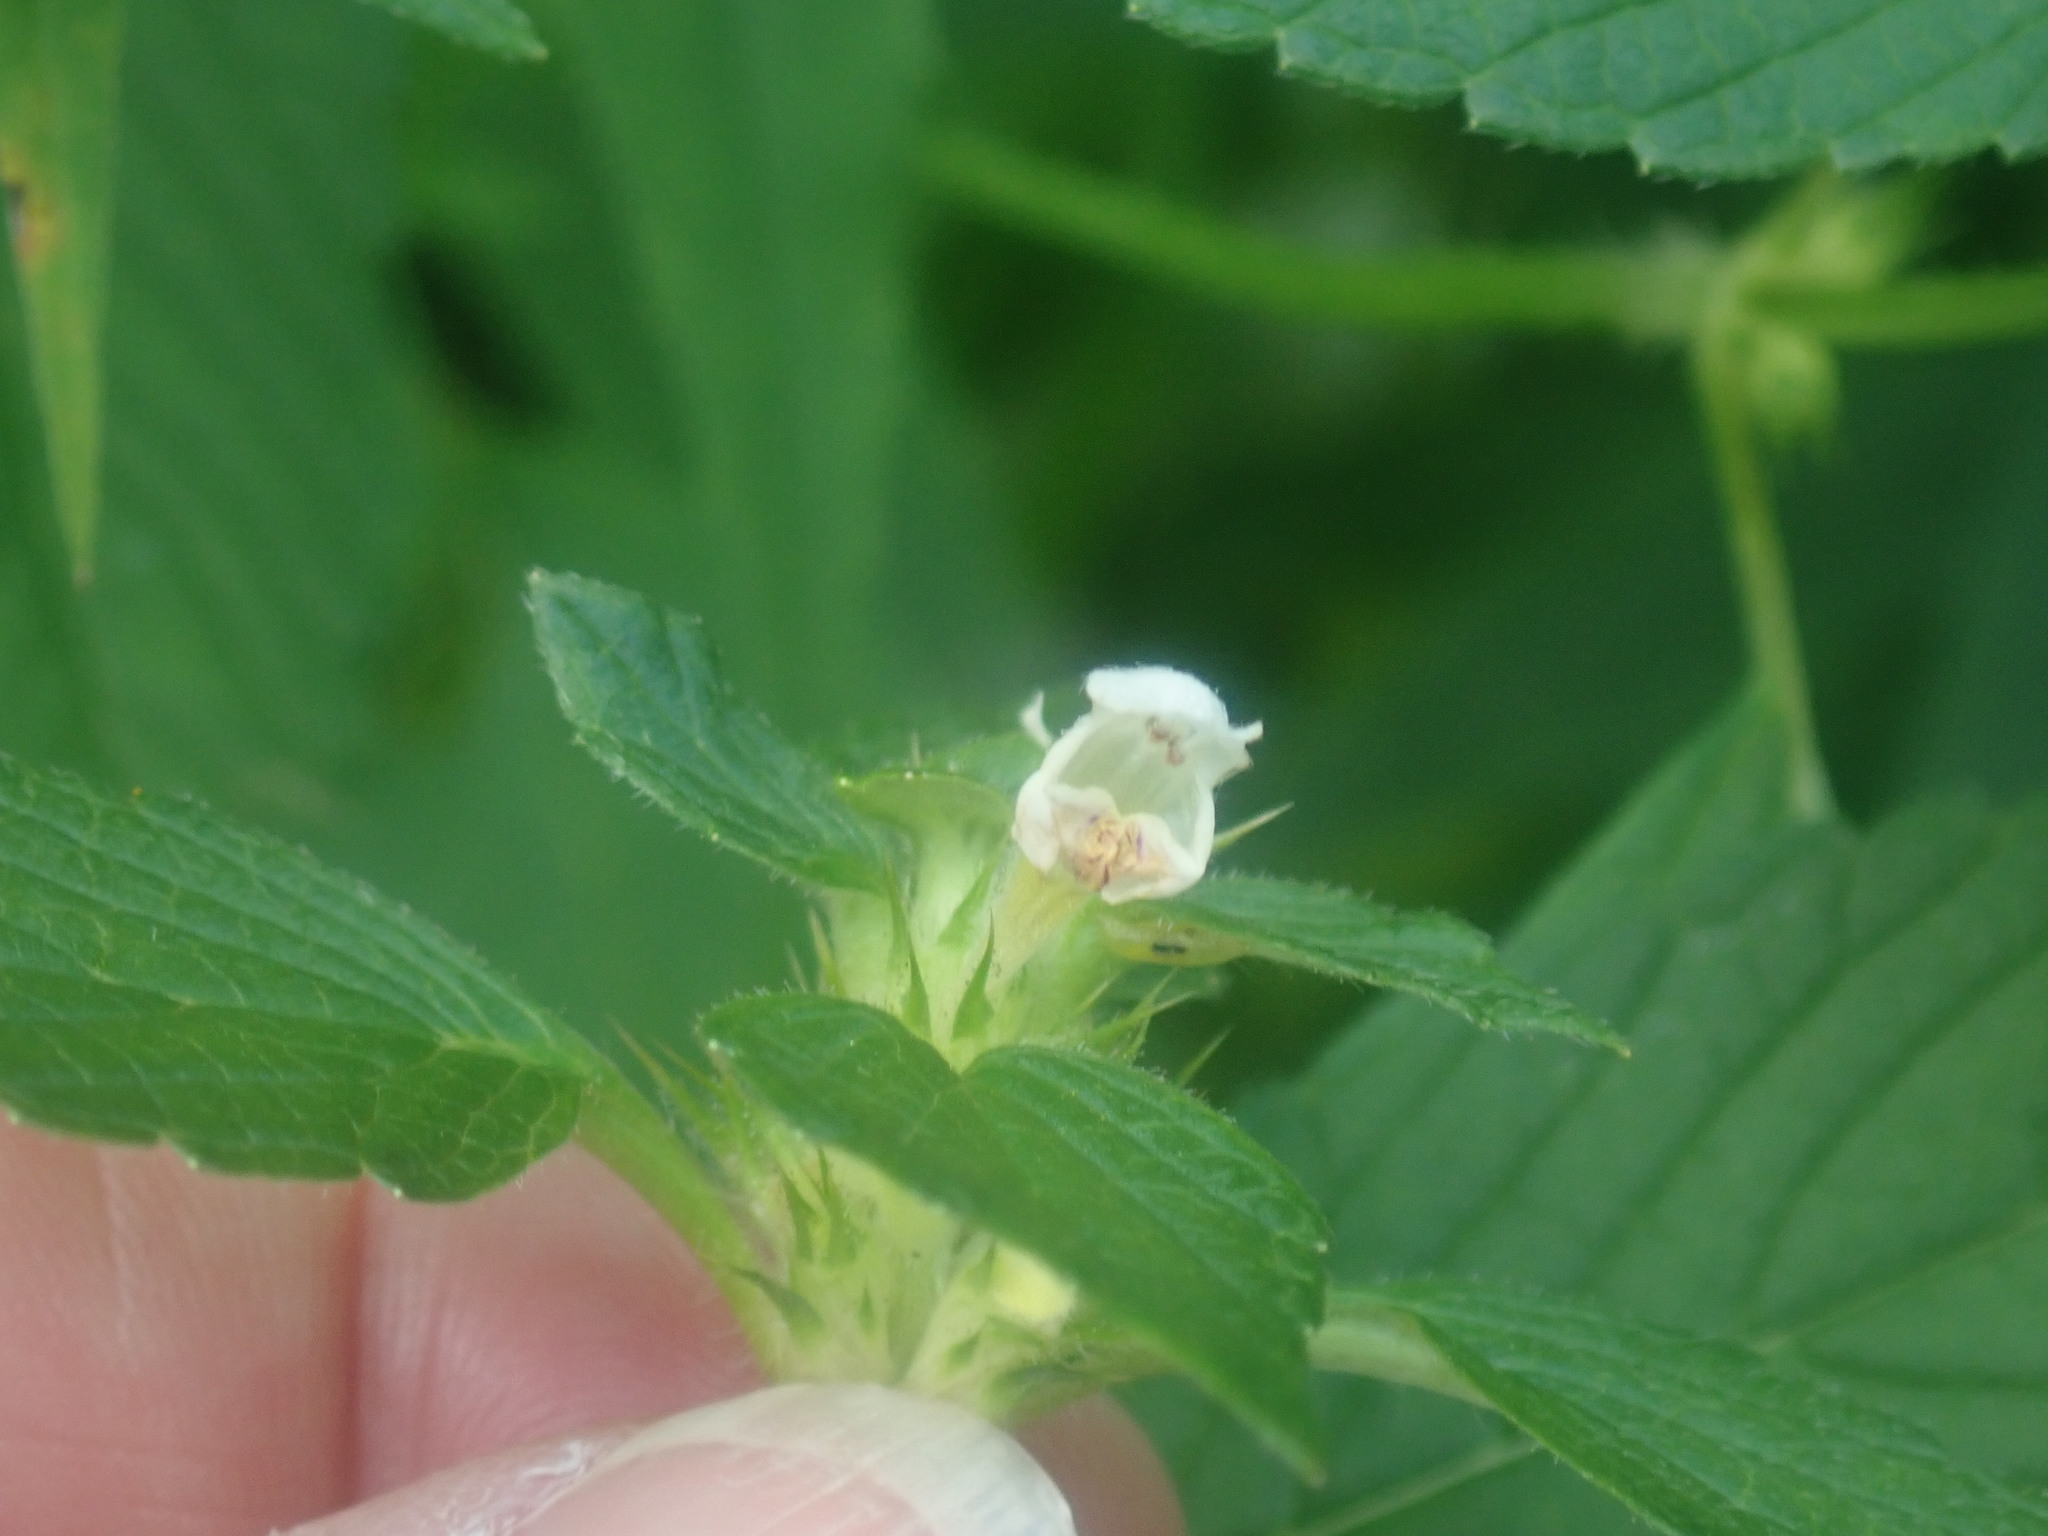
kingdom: Plantae
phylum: Tracheophyta
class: Magnoliopsida
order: Lamiales
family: Lamiaceae
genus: Galeopsis
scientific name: Galeopsis tetrahit
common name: Common hemp-nettle
